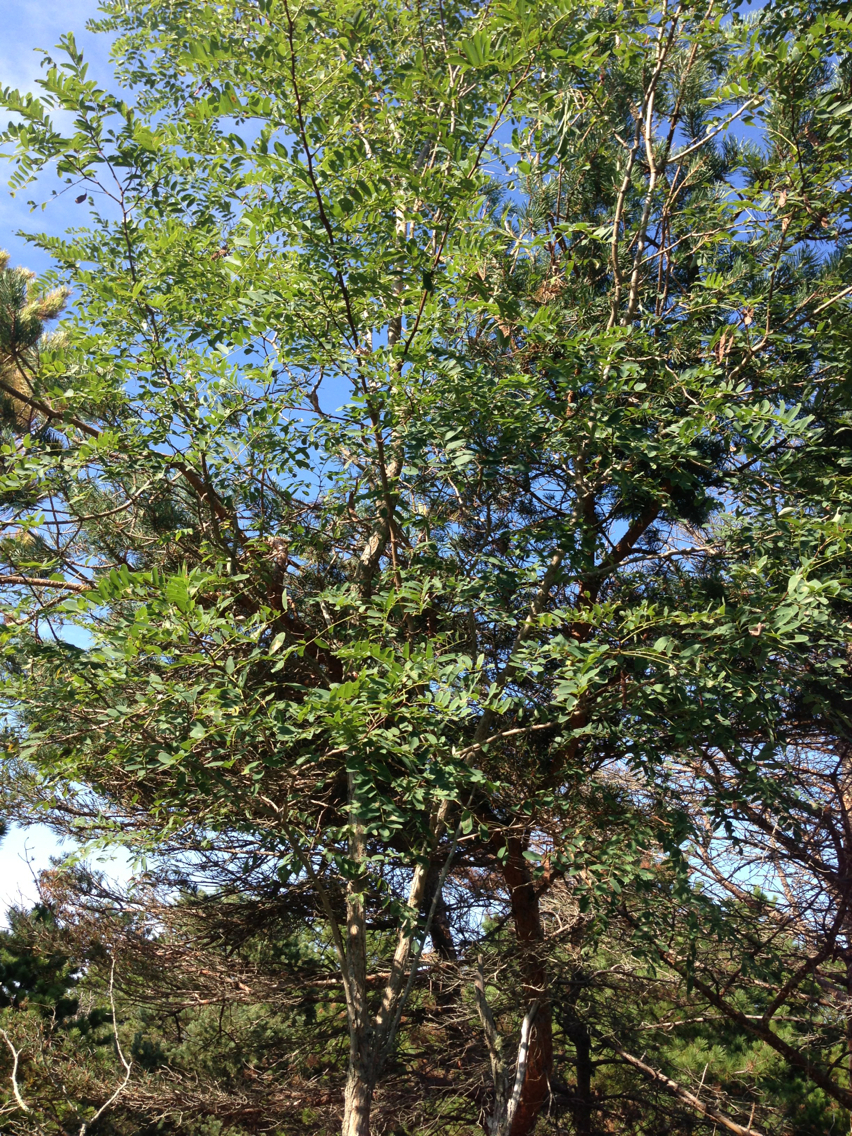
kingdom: Plantae
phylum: Tracheophyta
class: Magnoliopsida
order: Fabales
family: Fabaceae
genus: Robinia
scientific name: Robinia pseudoacacia
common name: Black locust
